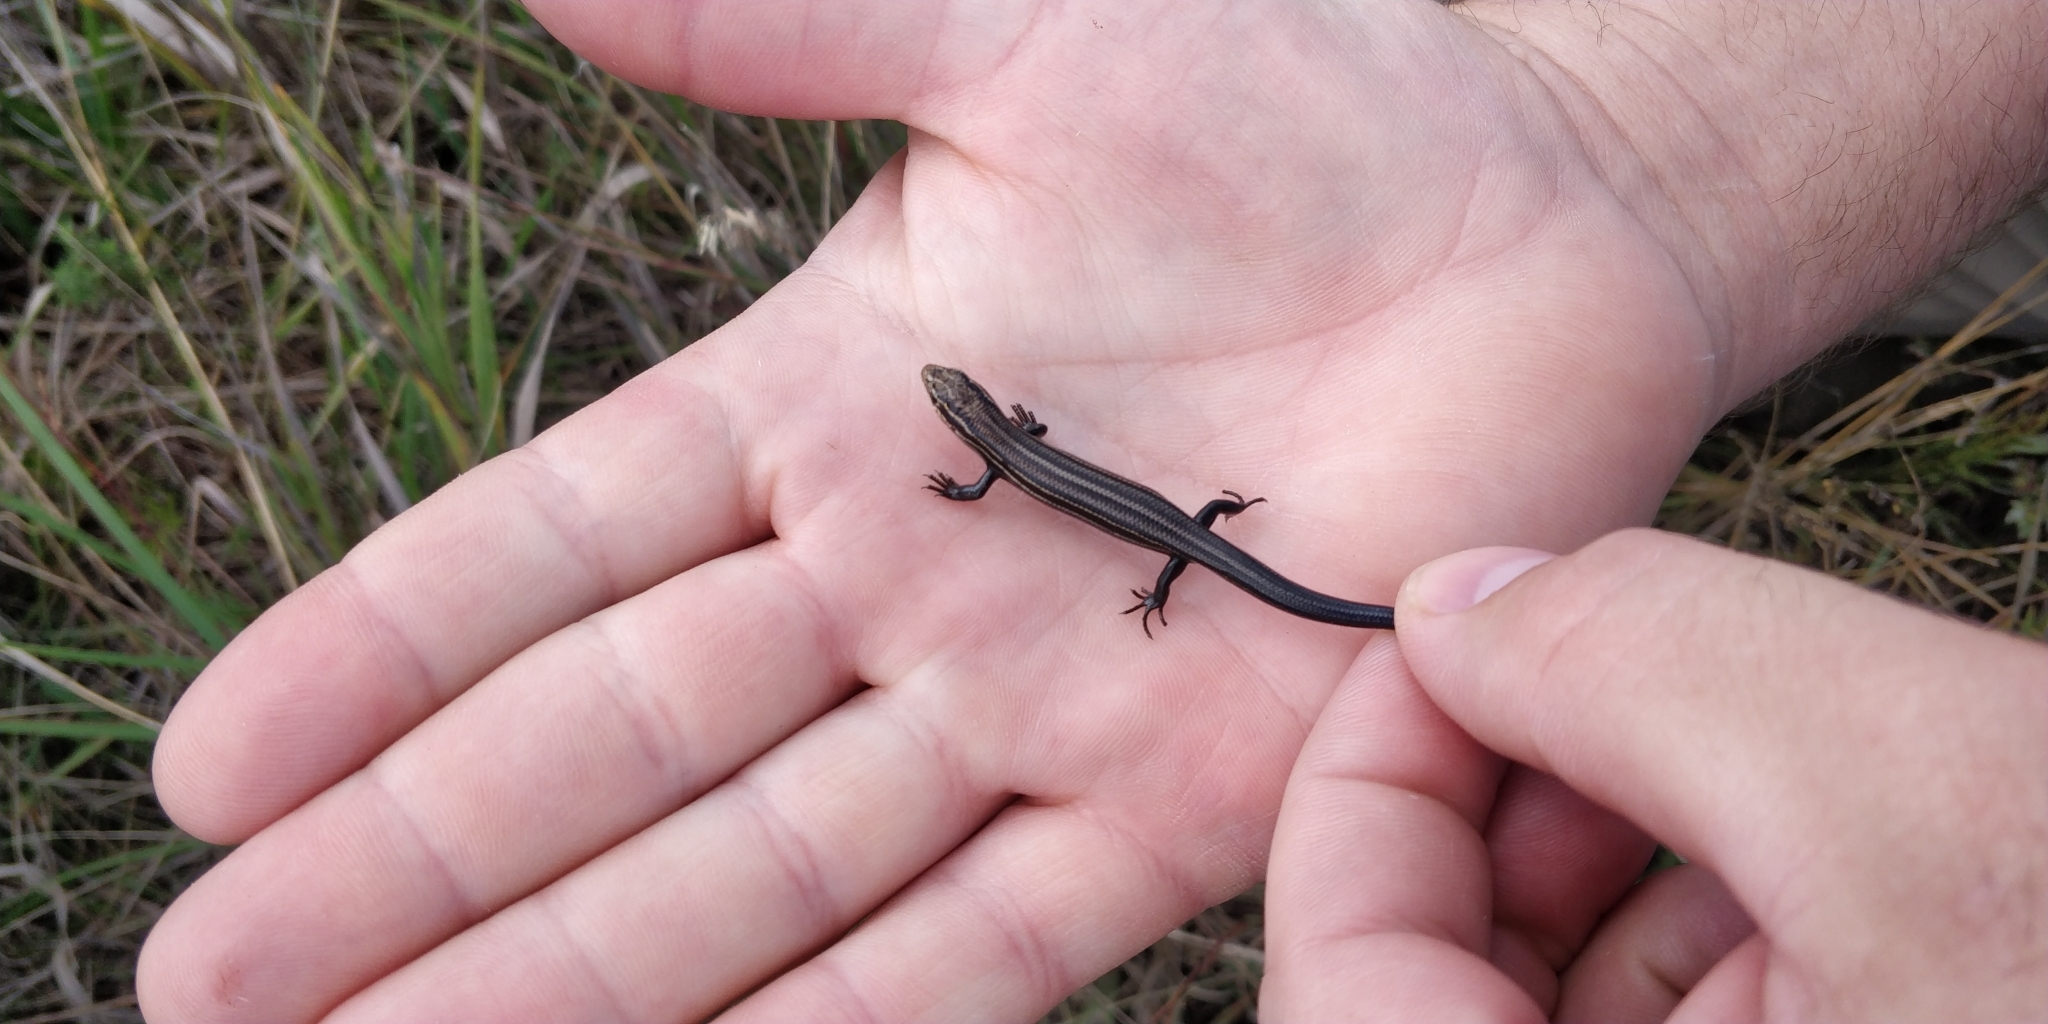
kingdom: Animalia
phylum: Chordata
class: Squamata
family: Scincidae
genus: Plestiodon
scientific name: Plestiodon septentrionalis
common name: Northern prairie skink
